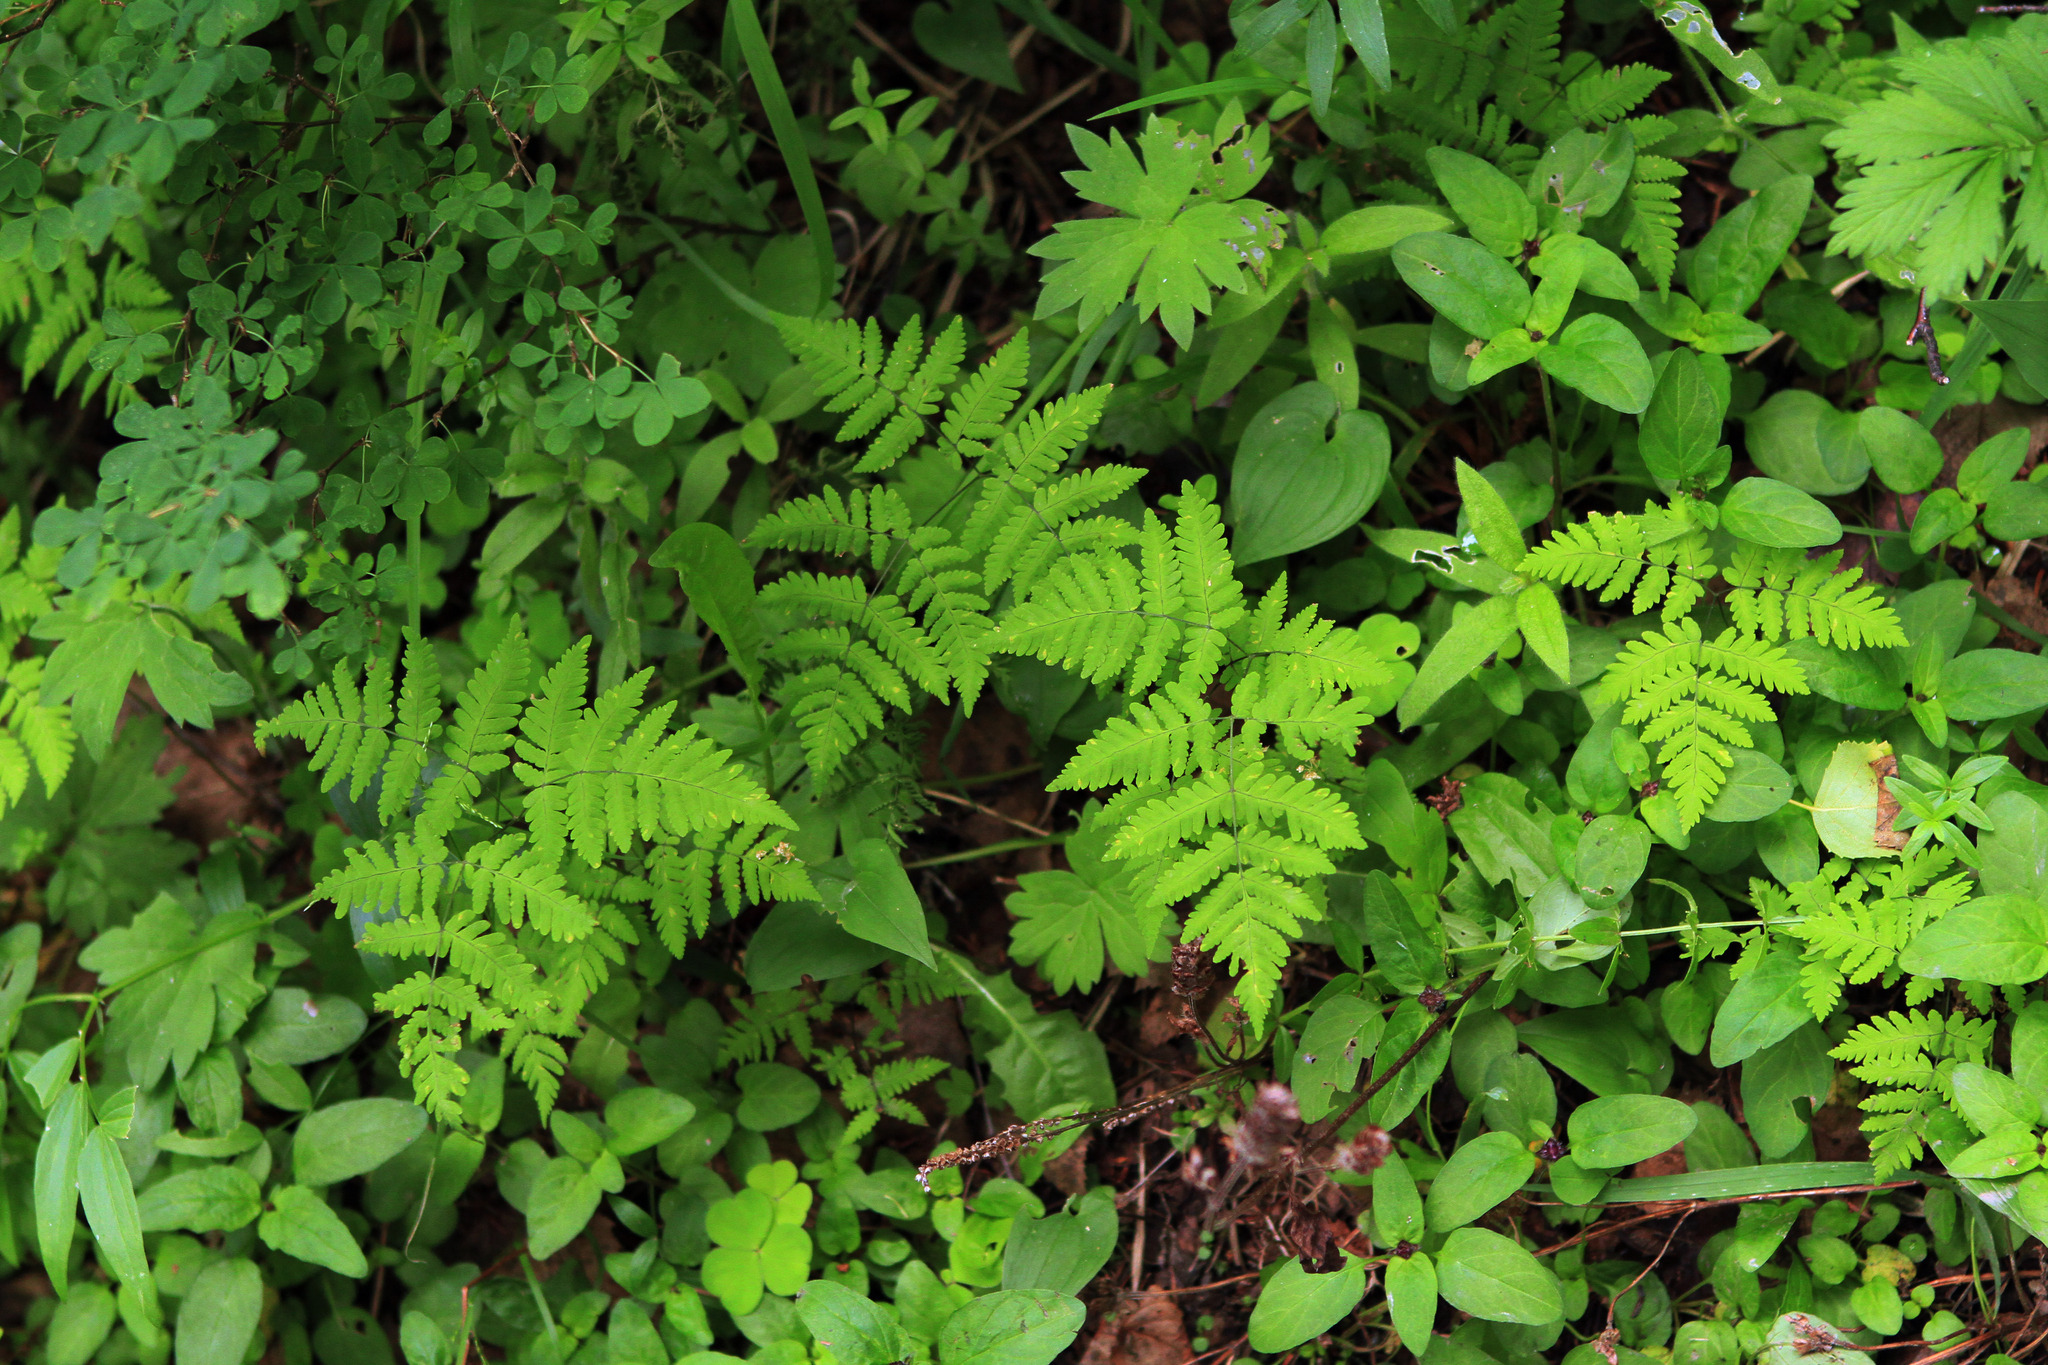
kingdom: Plantae
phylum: Tracheophyta
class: Polypodiopsida
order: Polypodiales
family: Cystopteridaceae
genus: Gymnocarpium
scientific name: Gymnocarpium dryopteris
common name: Oak fern
